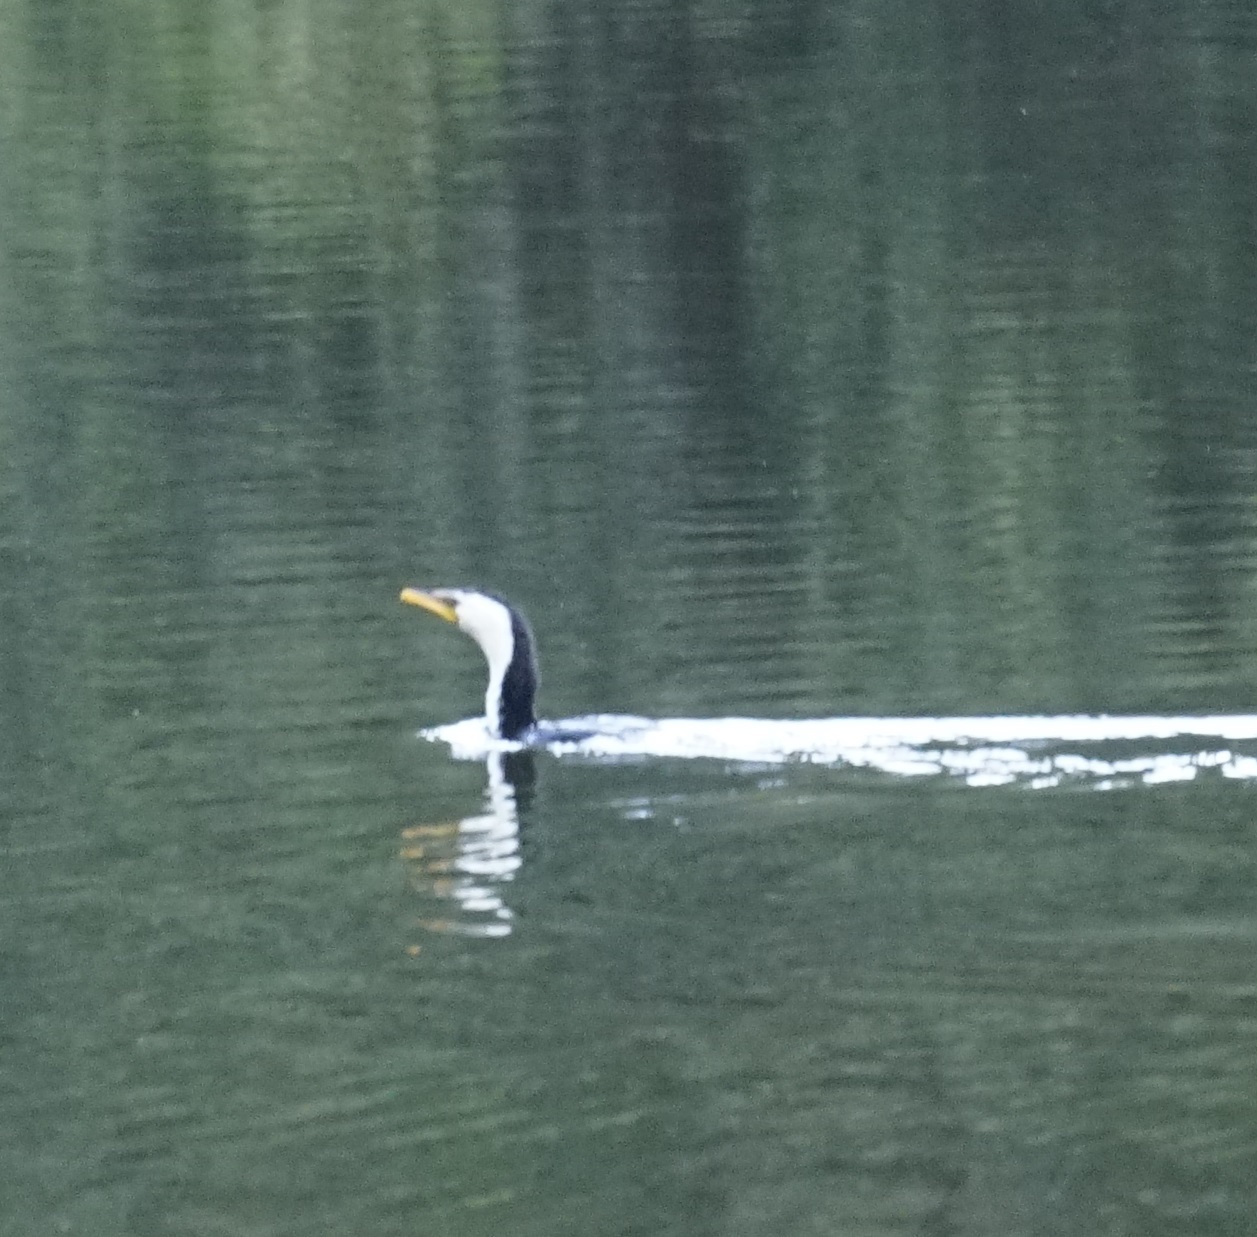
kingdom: Animalia
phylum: Chordata
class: Aves
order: Suliformes
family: Phalacrocoracidae
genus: Microcarbo
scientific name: Microcarbo melanoleucos
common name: Little pied cormorant
